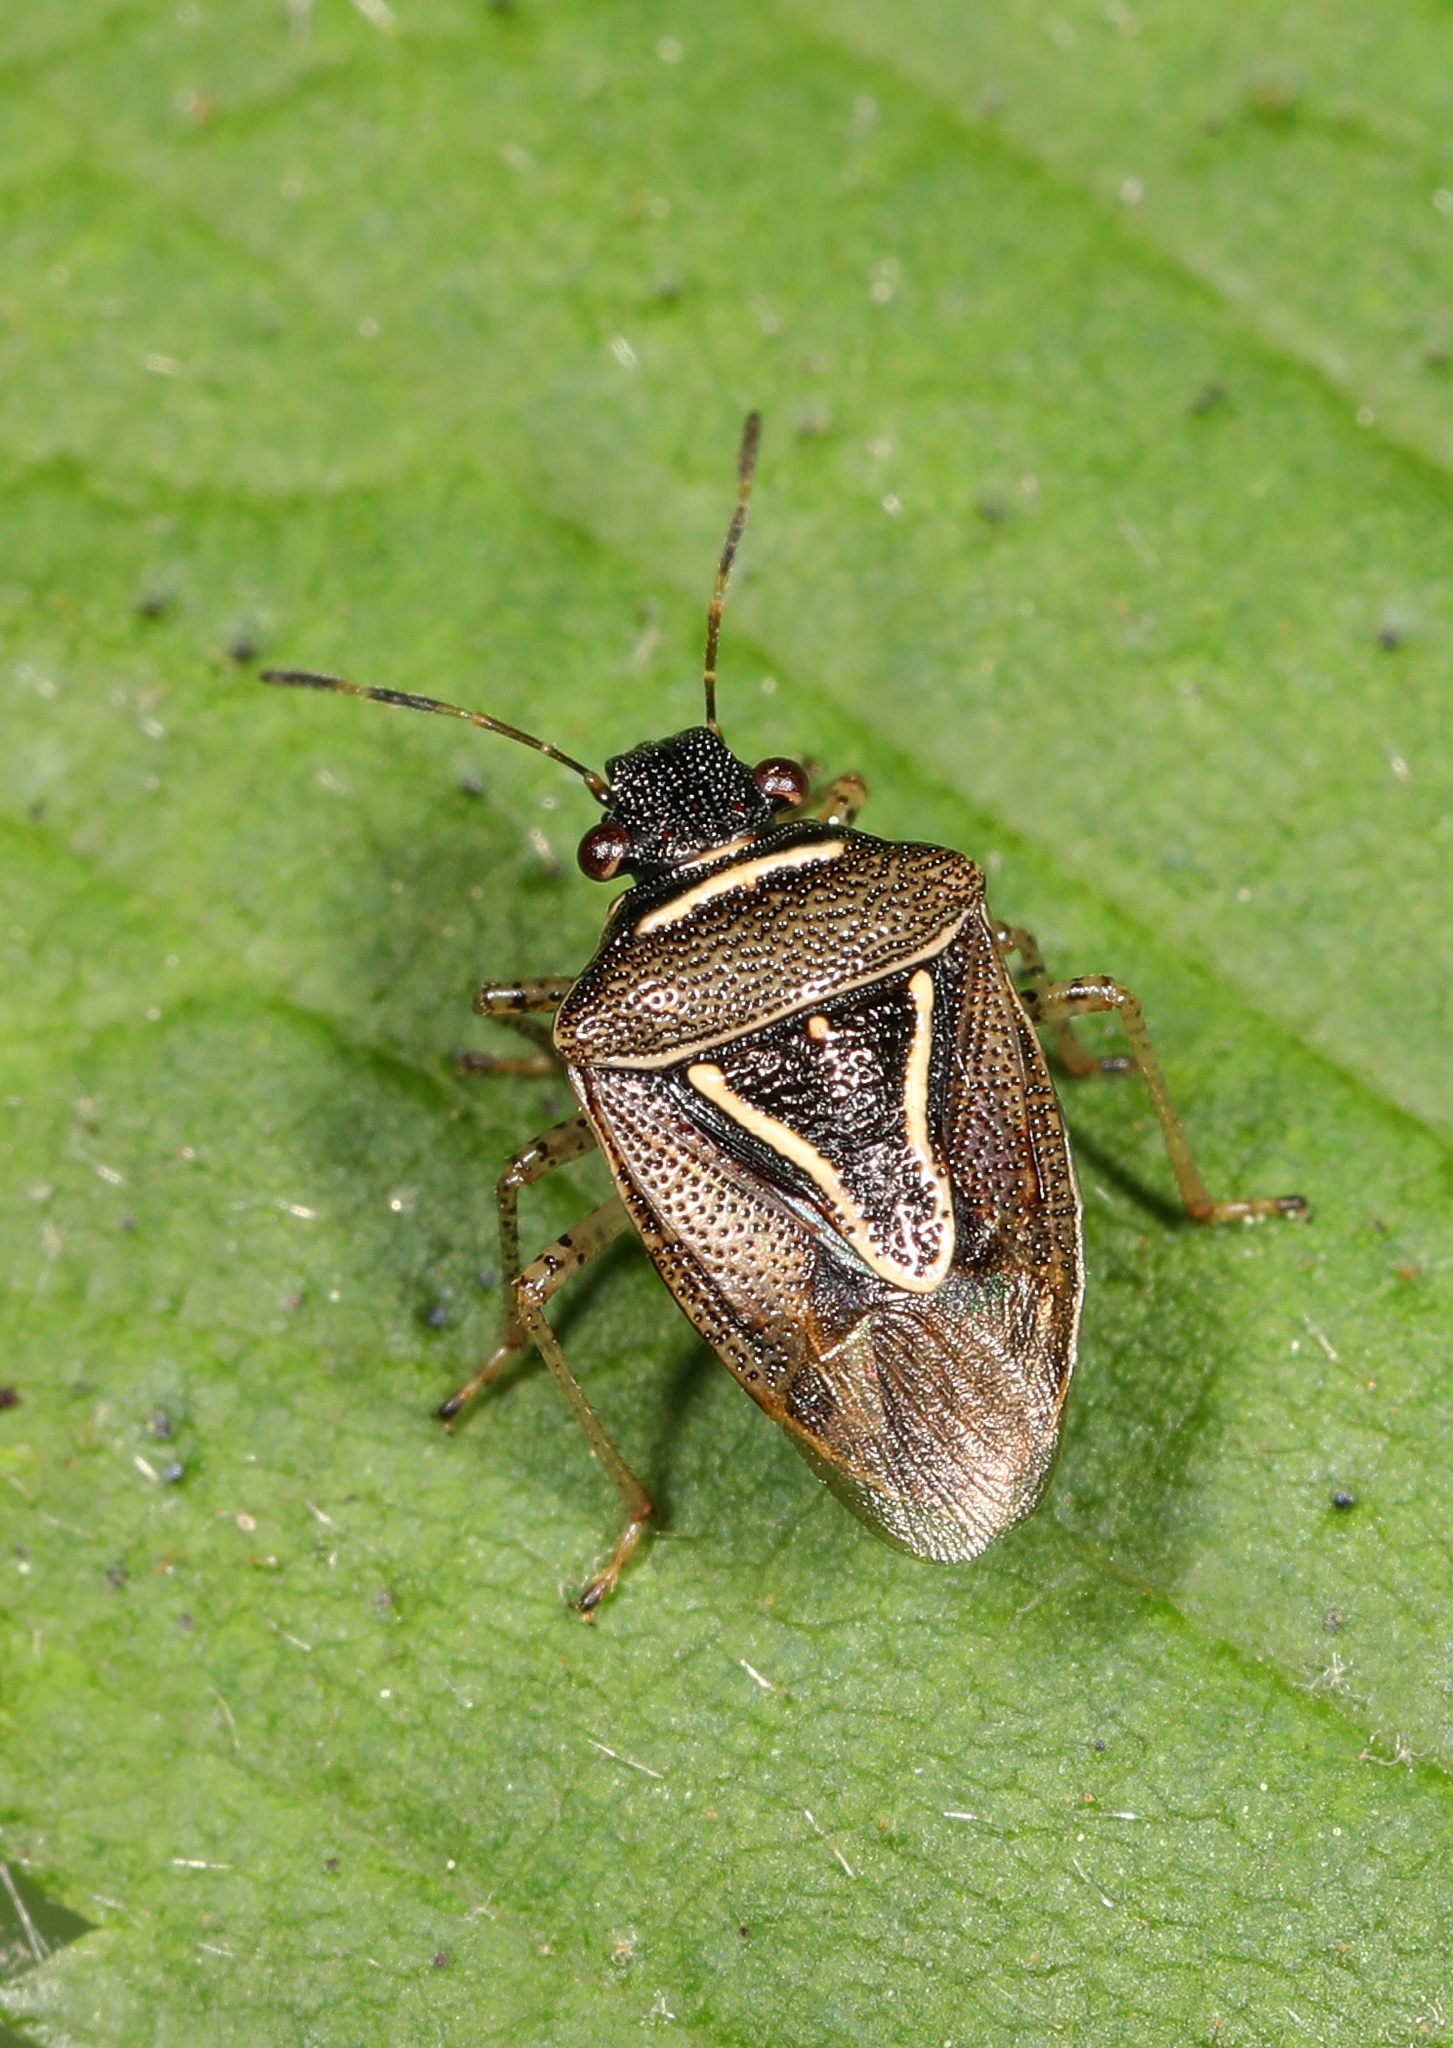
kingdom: Animalia
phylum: Arthropoda
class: Insecta
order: Hemiptera
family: Pentatomidae
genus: Mormidea
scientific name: Mormidea lugens
